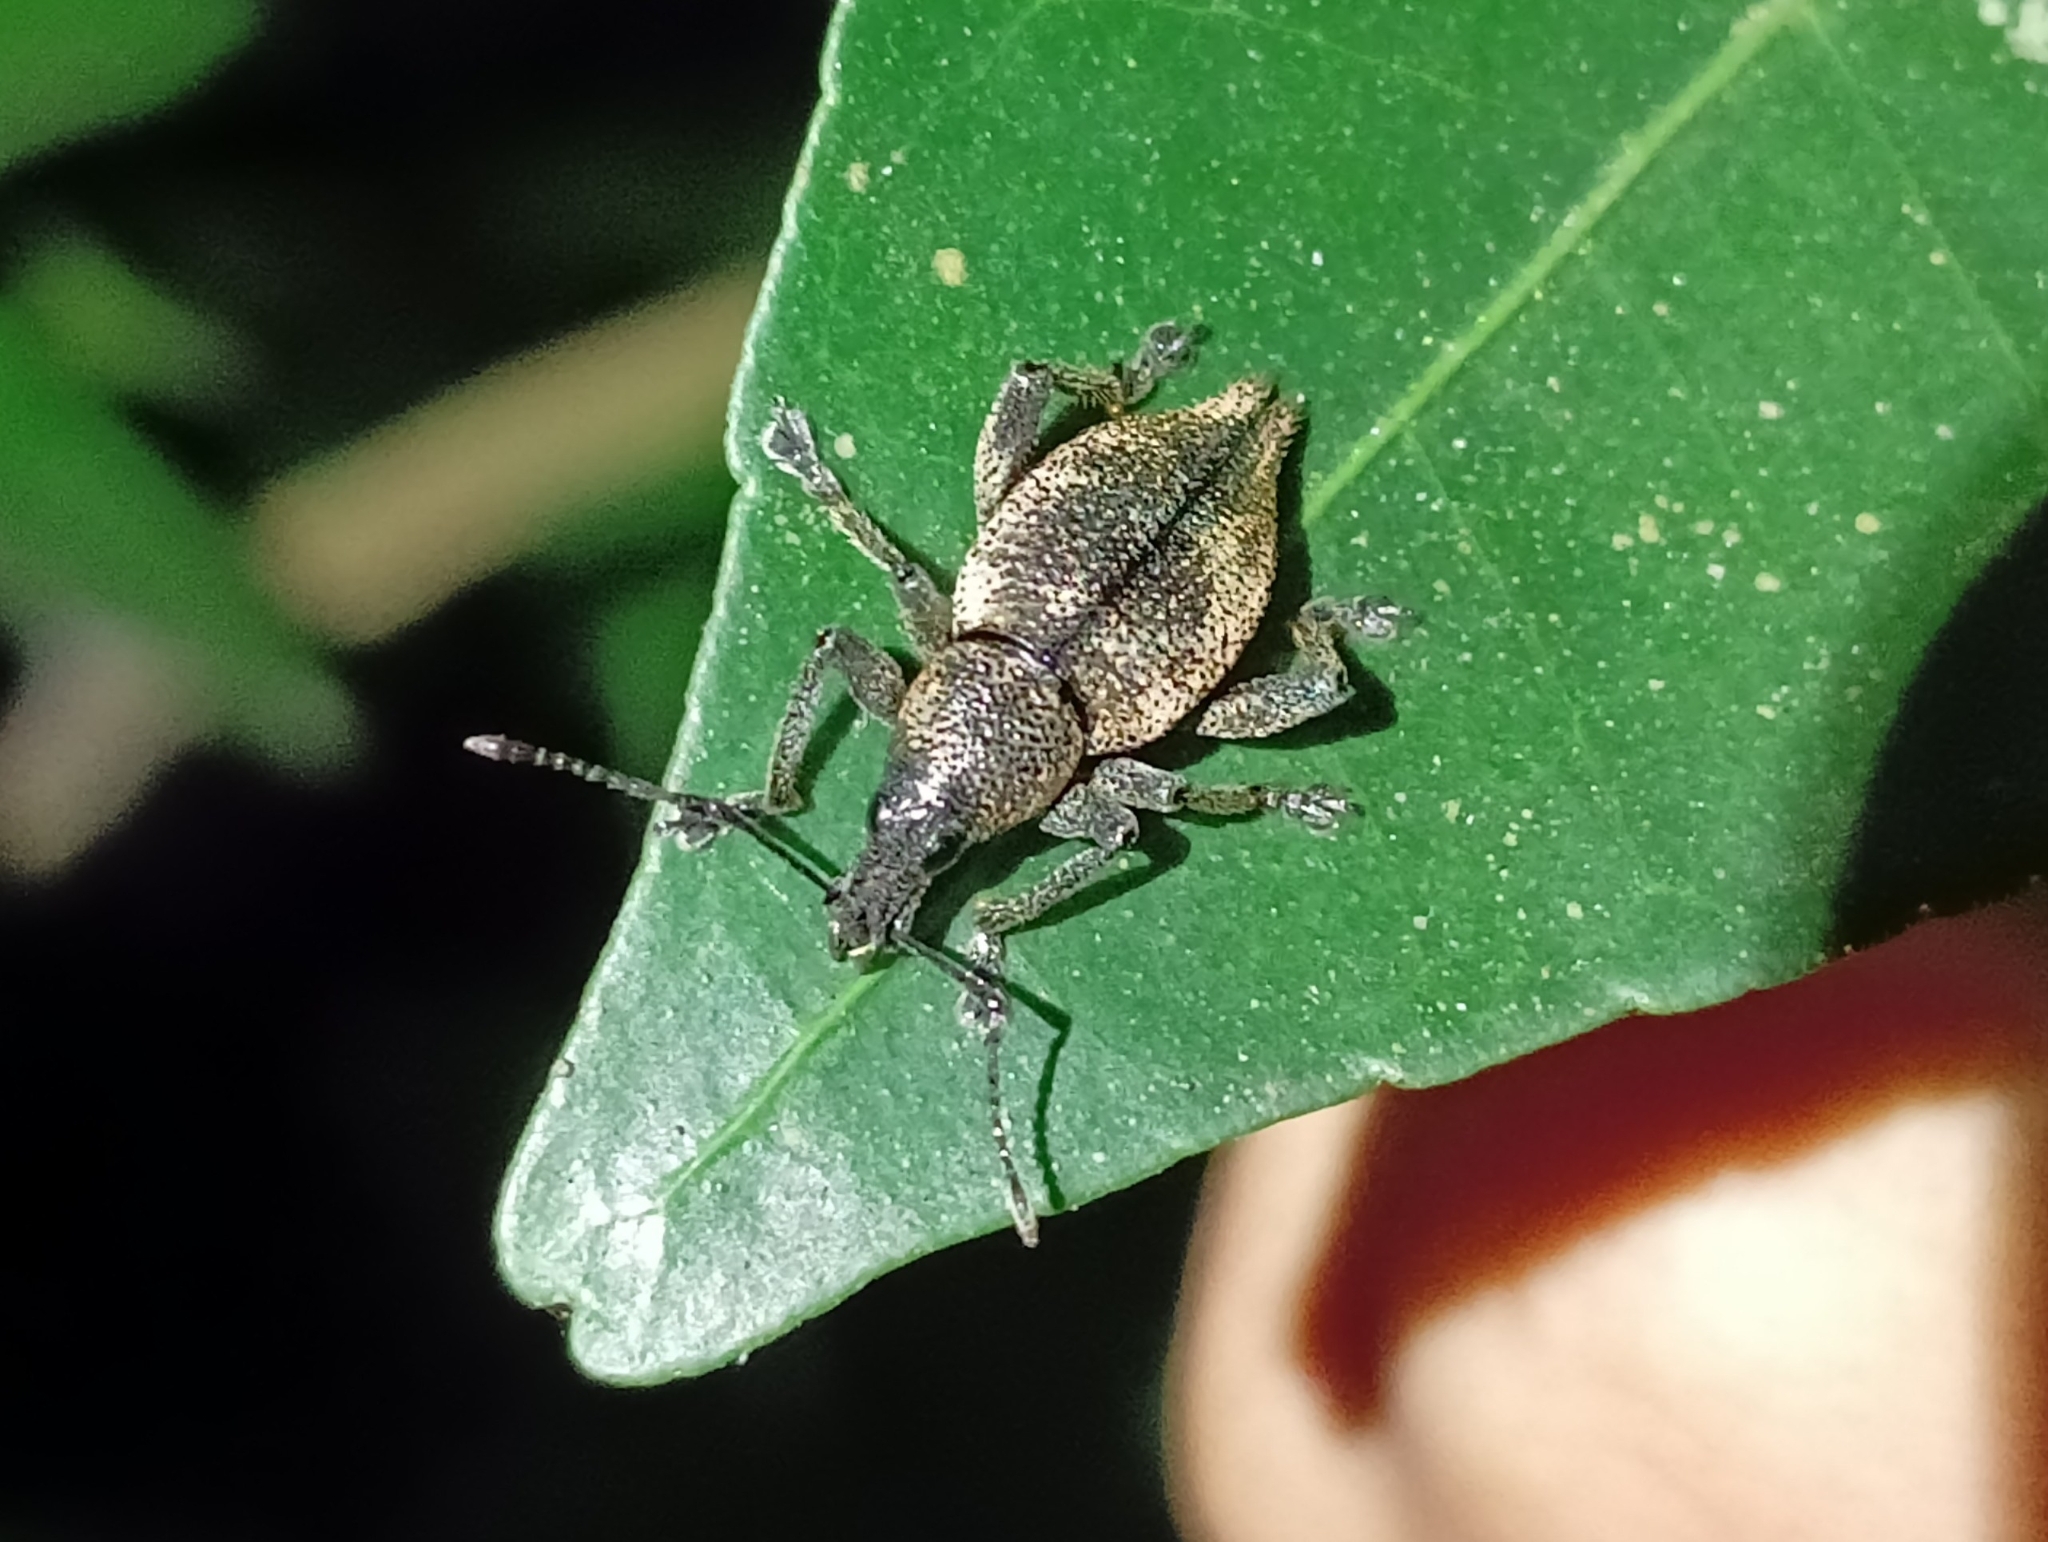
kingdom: Animalia
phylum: Arthropoda
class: Insecta
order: Coleoptera
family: Curculionidae
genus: Elytrurus
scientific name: Elytrurus serrulatus
